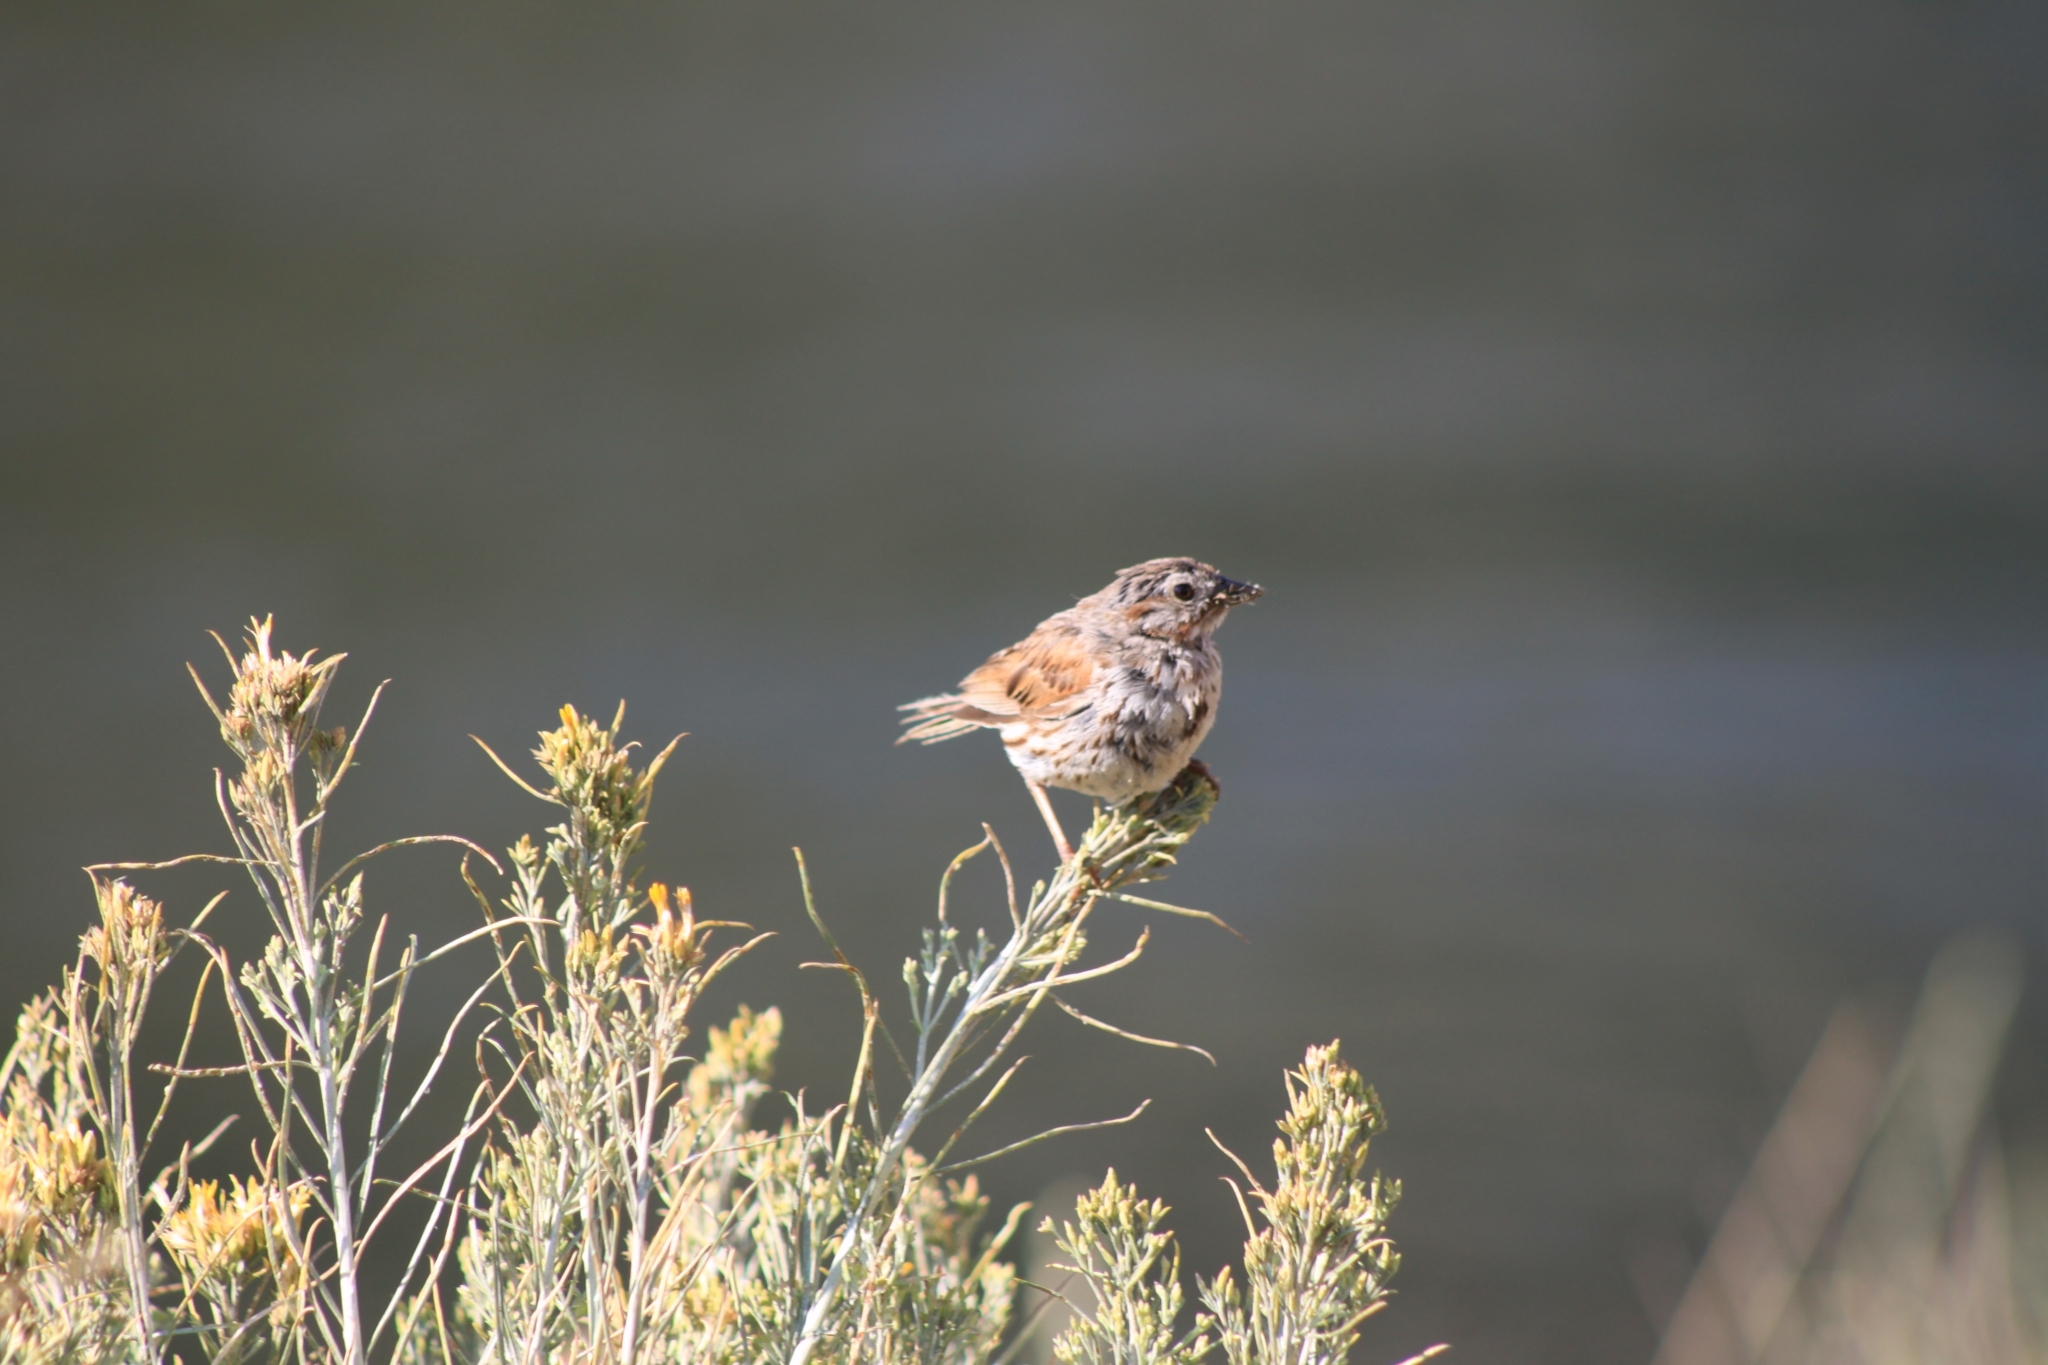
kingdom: Animalia
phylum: Chordata
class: Aves
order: Passeriformes
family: Passerellidae
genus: Melospiza
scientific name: Melospiza melodia
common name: Song sparrow
